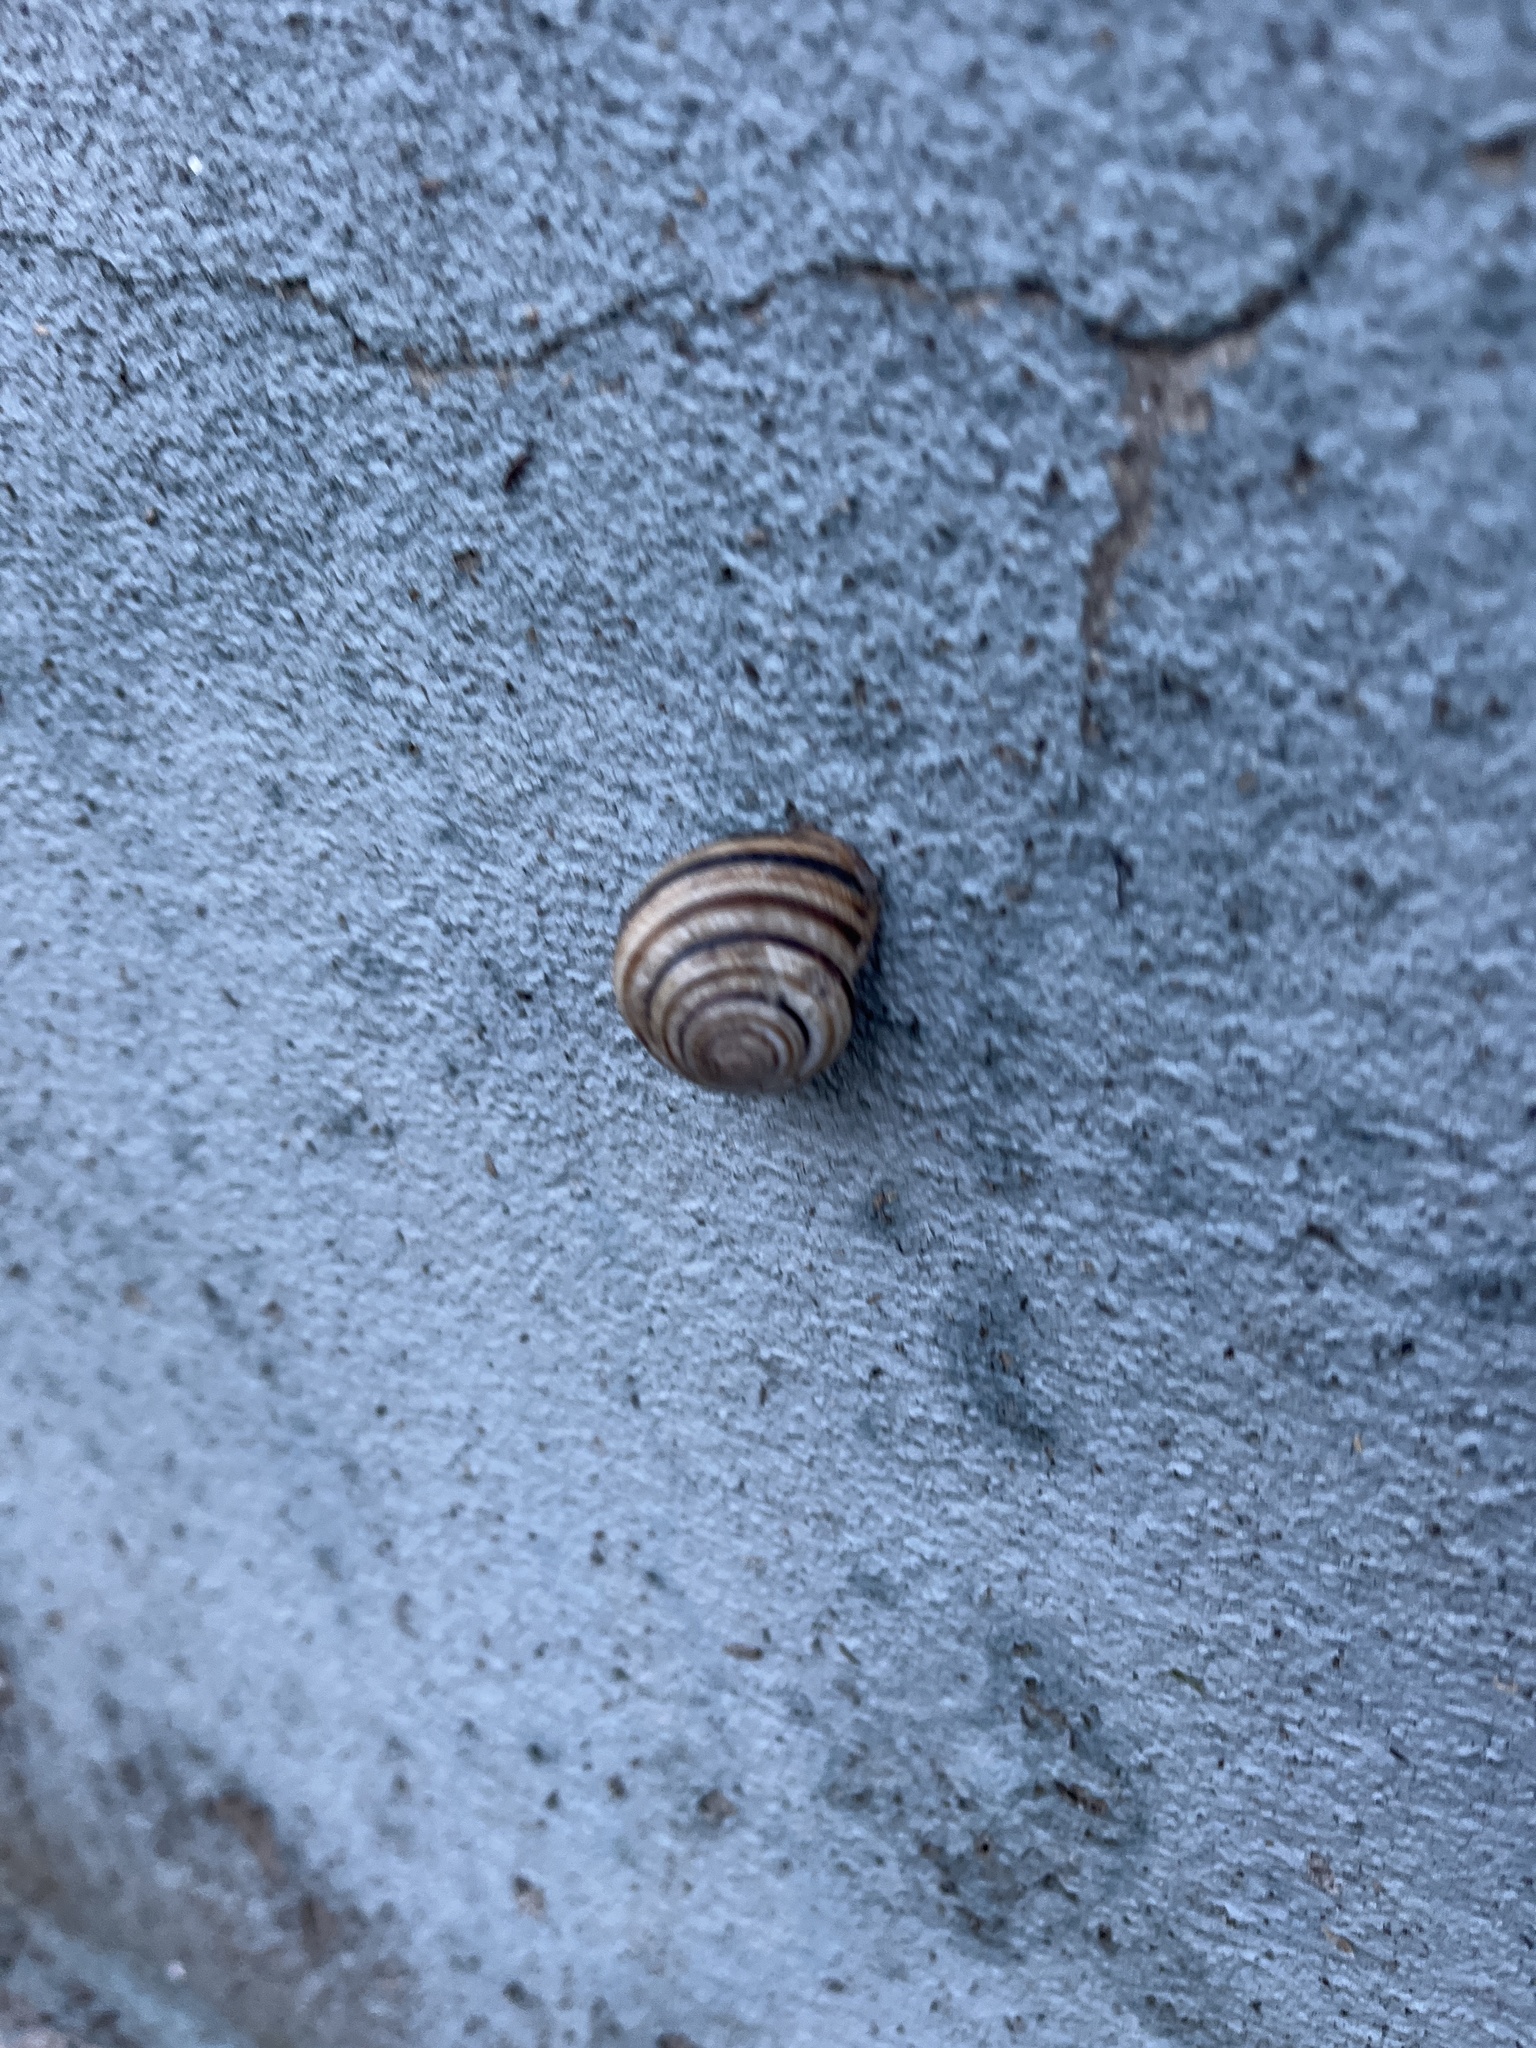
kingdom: Animalia
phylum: Mollusca
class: Gastropoda
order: Stylommatophora
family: Helicidae
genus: Caucasotachea
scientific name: Caucasotachea vindobonensis
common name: European helicid land snail
